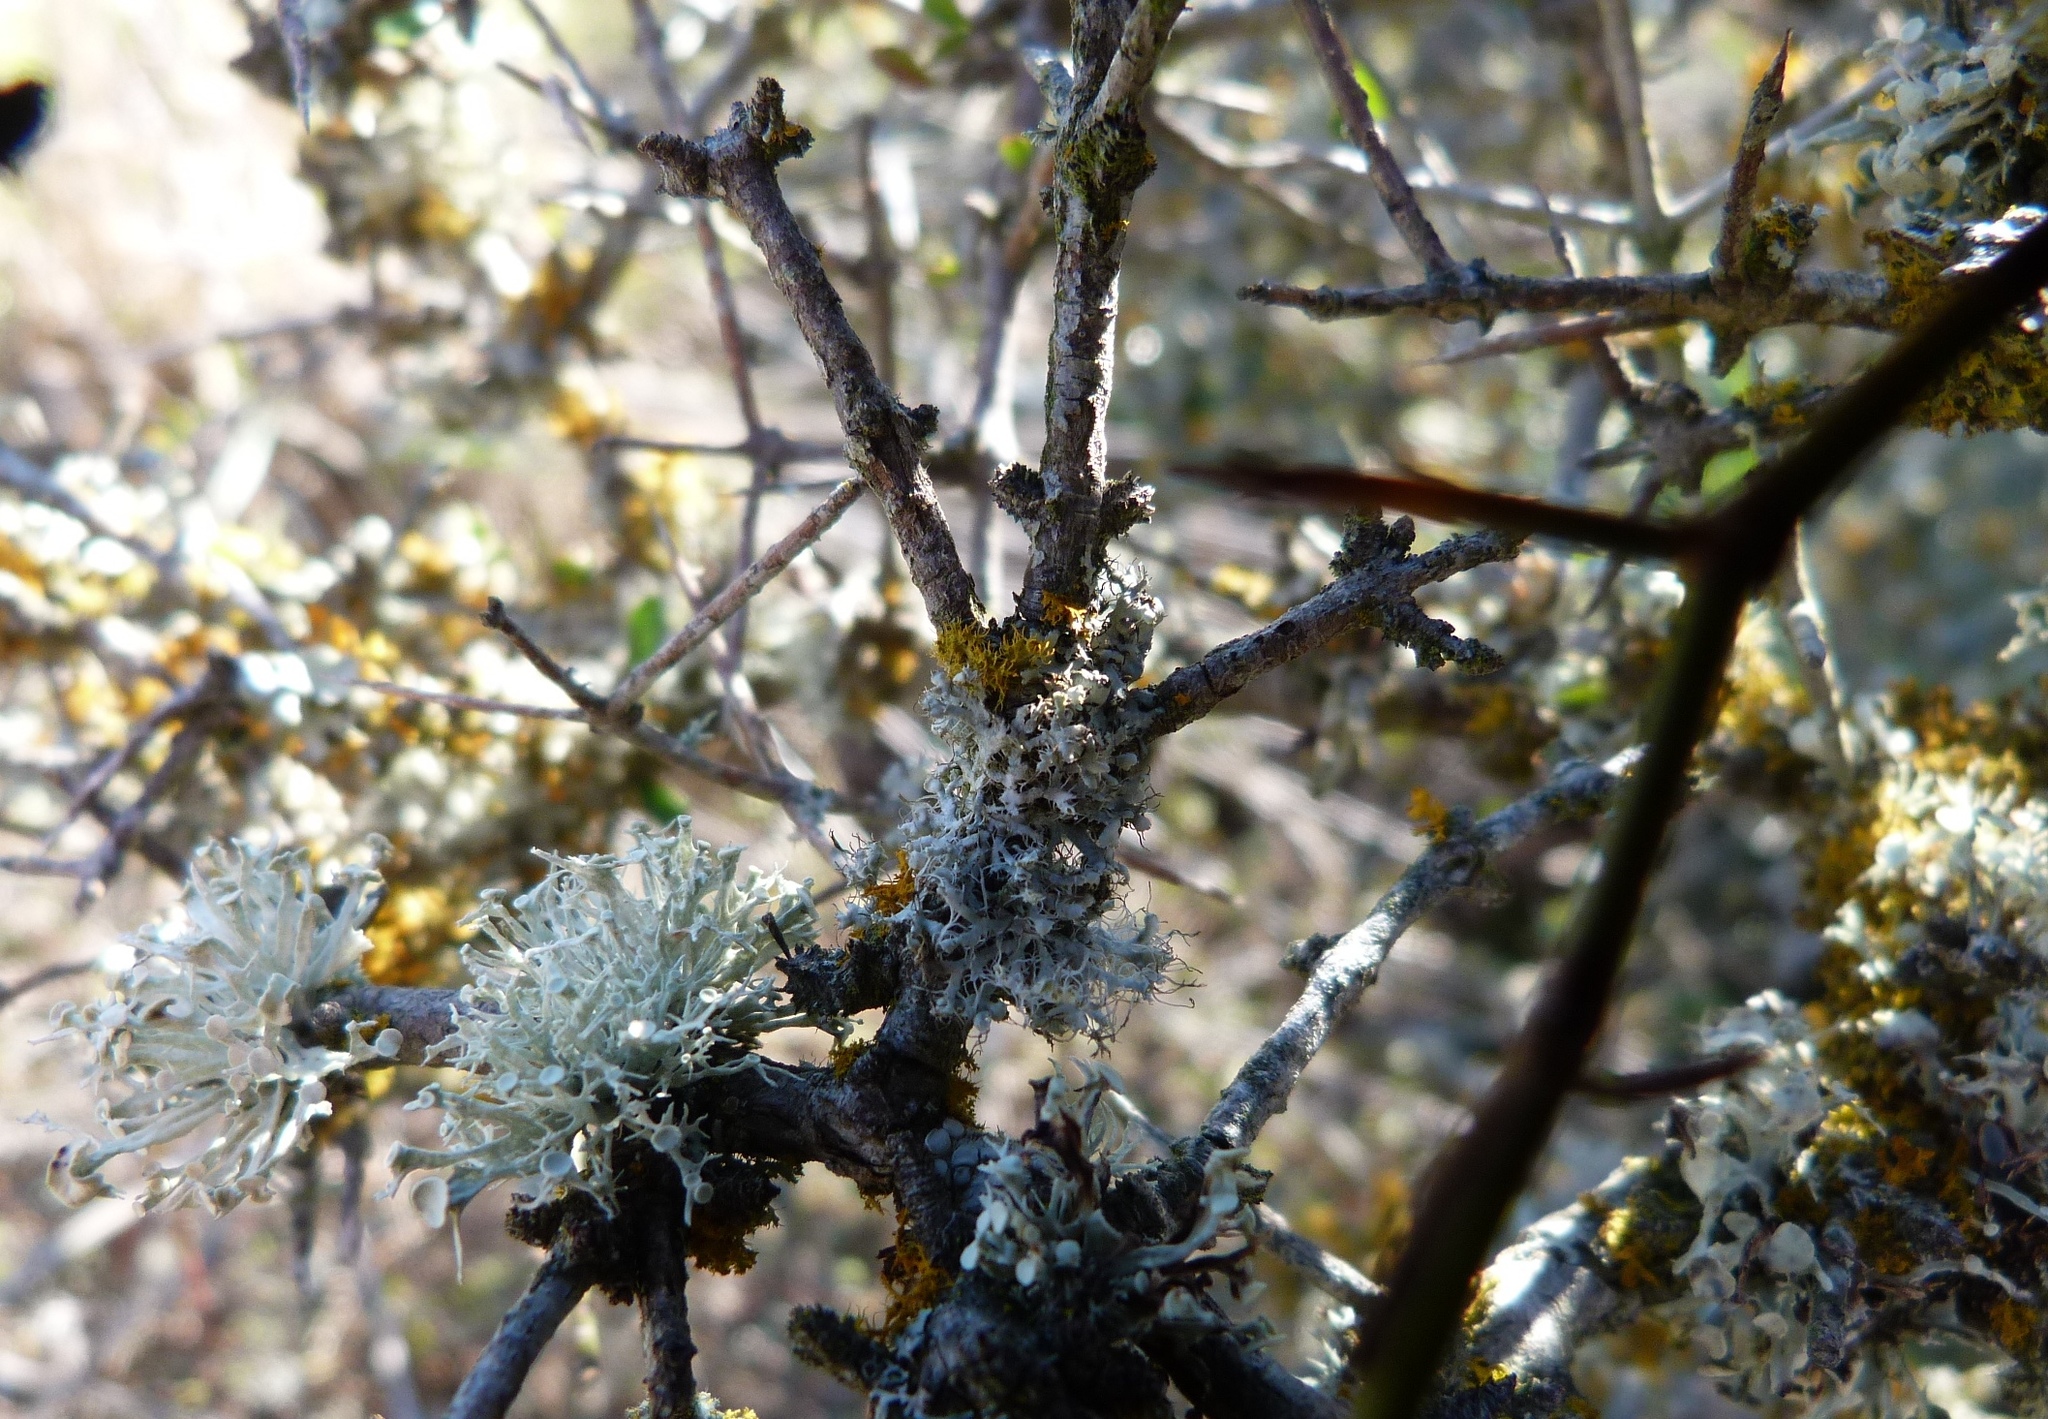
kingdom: Fungi
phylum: Ascomycota
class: Lecanoromycetes
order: Caliciales
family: Physciaceae
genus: Physcia
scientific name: Physcia adscendens
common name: Hooded rosette lichen
